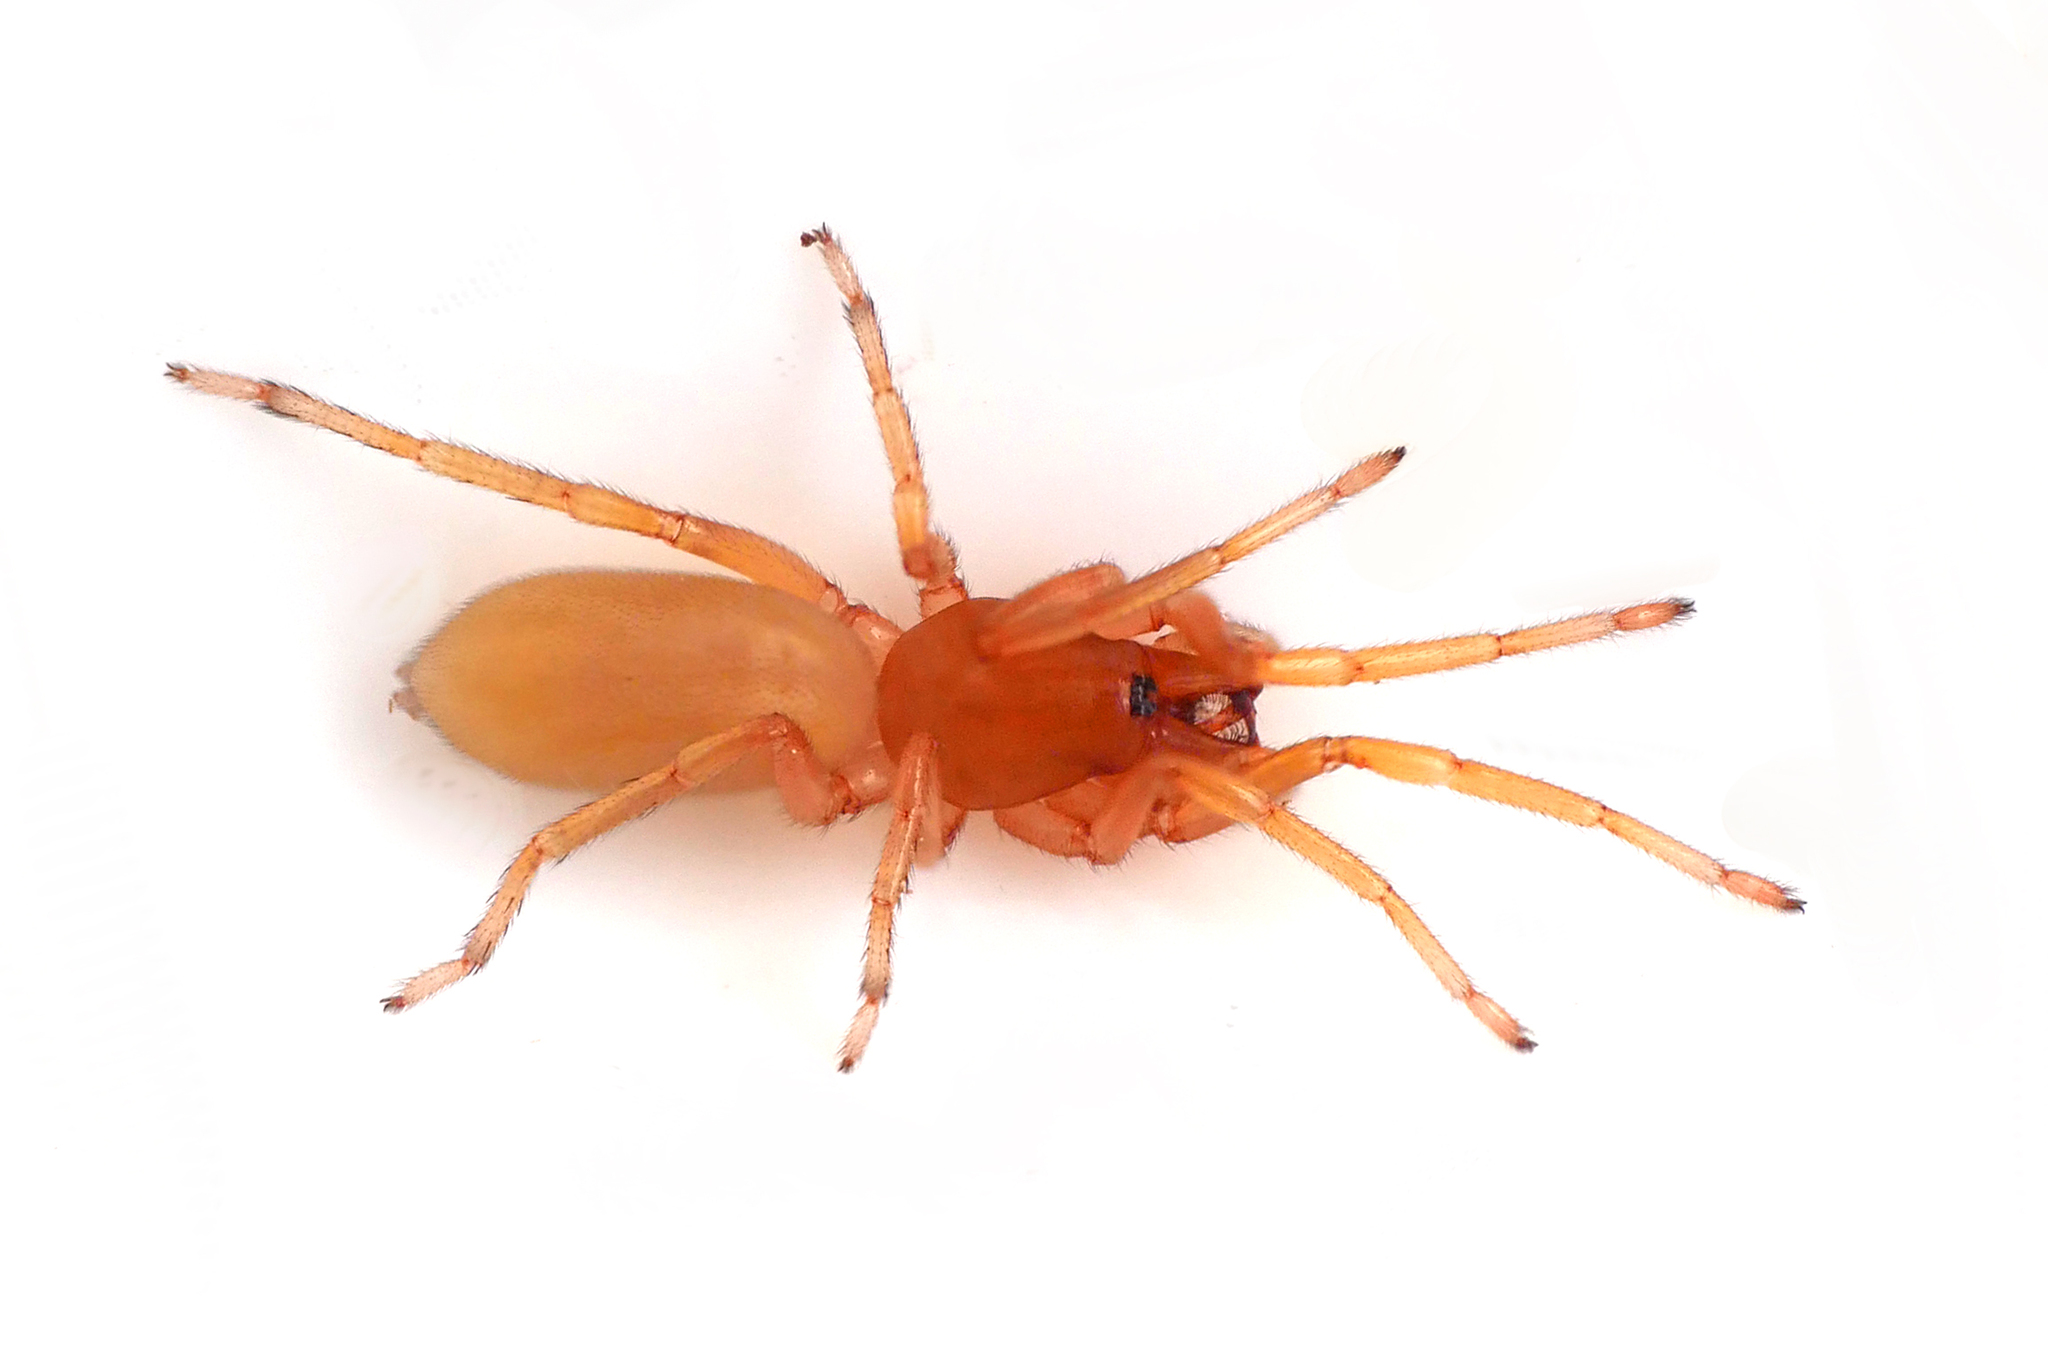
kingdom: Animalia
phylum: Arthropoda
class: Arachnida
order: Araneae
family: Dysderidae
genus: Dysdera
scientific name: Dysdera crocata
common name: Woodlouse spider
